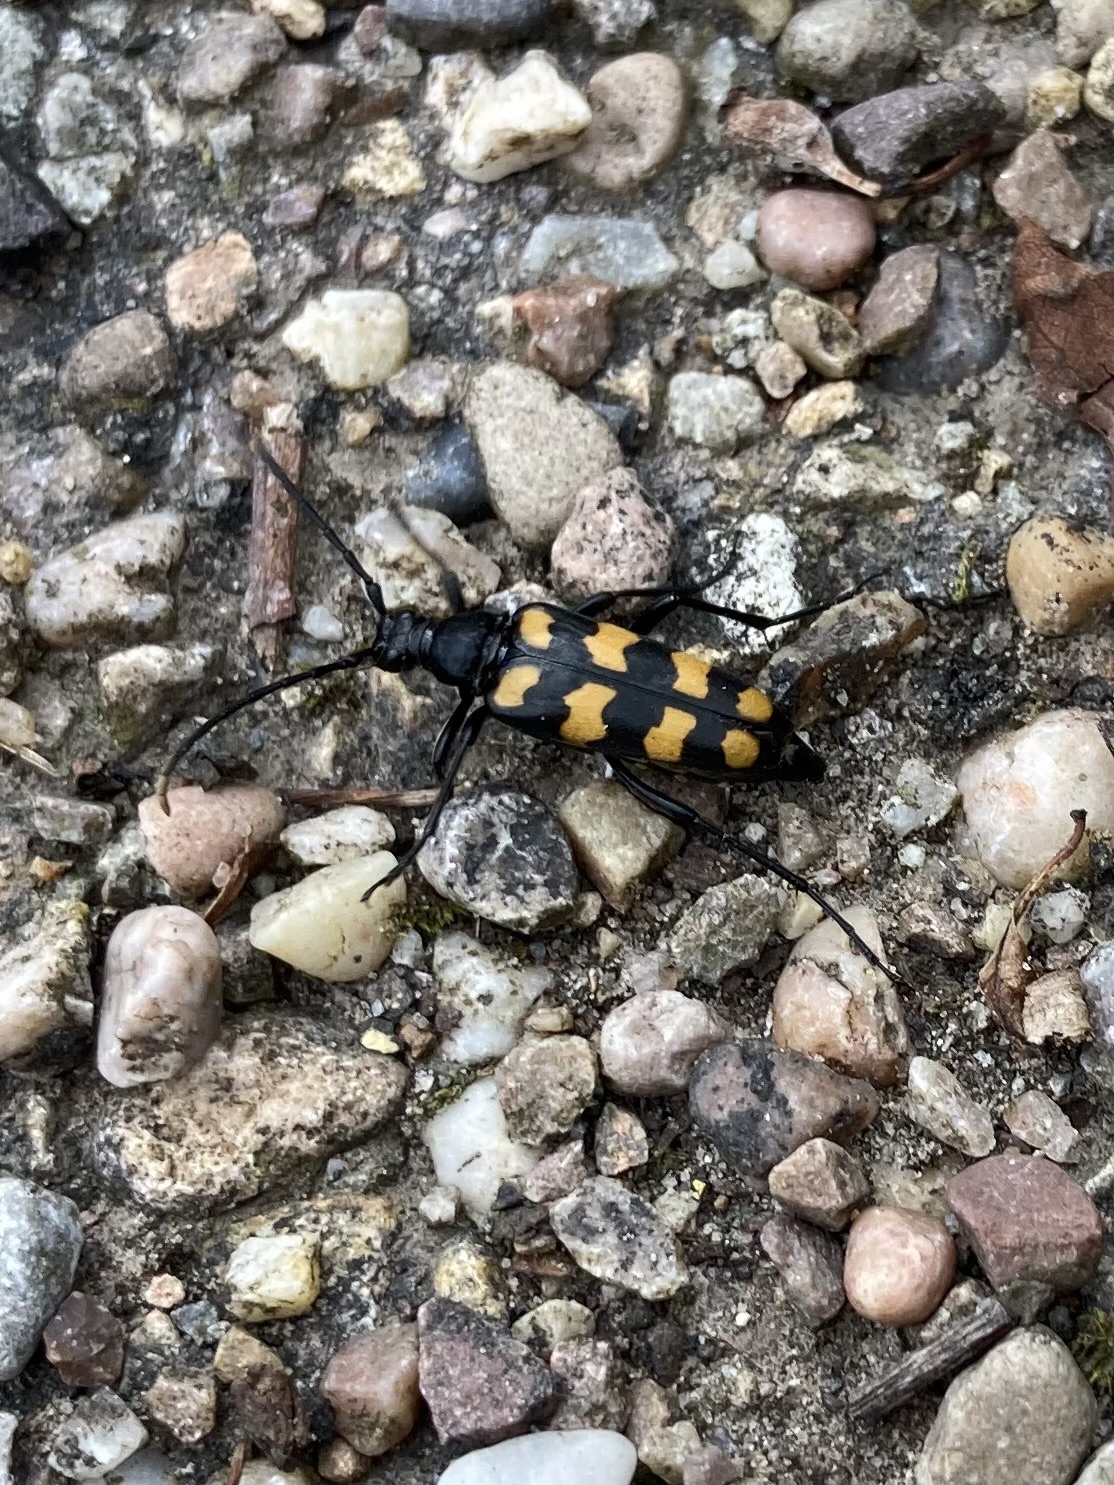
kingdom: Animalia
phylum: Arthropoda
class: Insecta
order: Coleoptera
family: Cerambycidae
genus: Leptura
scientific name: Leptura quadrifasciata
